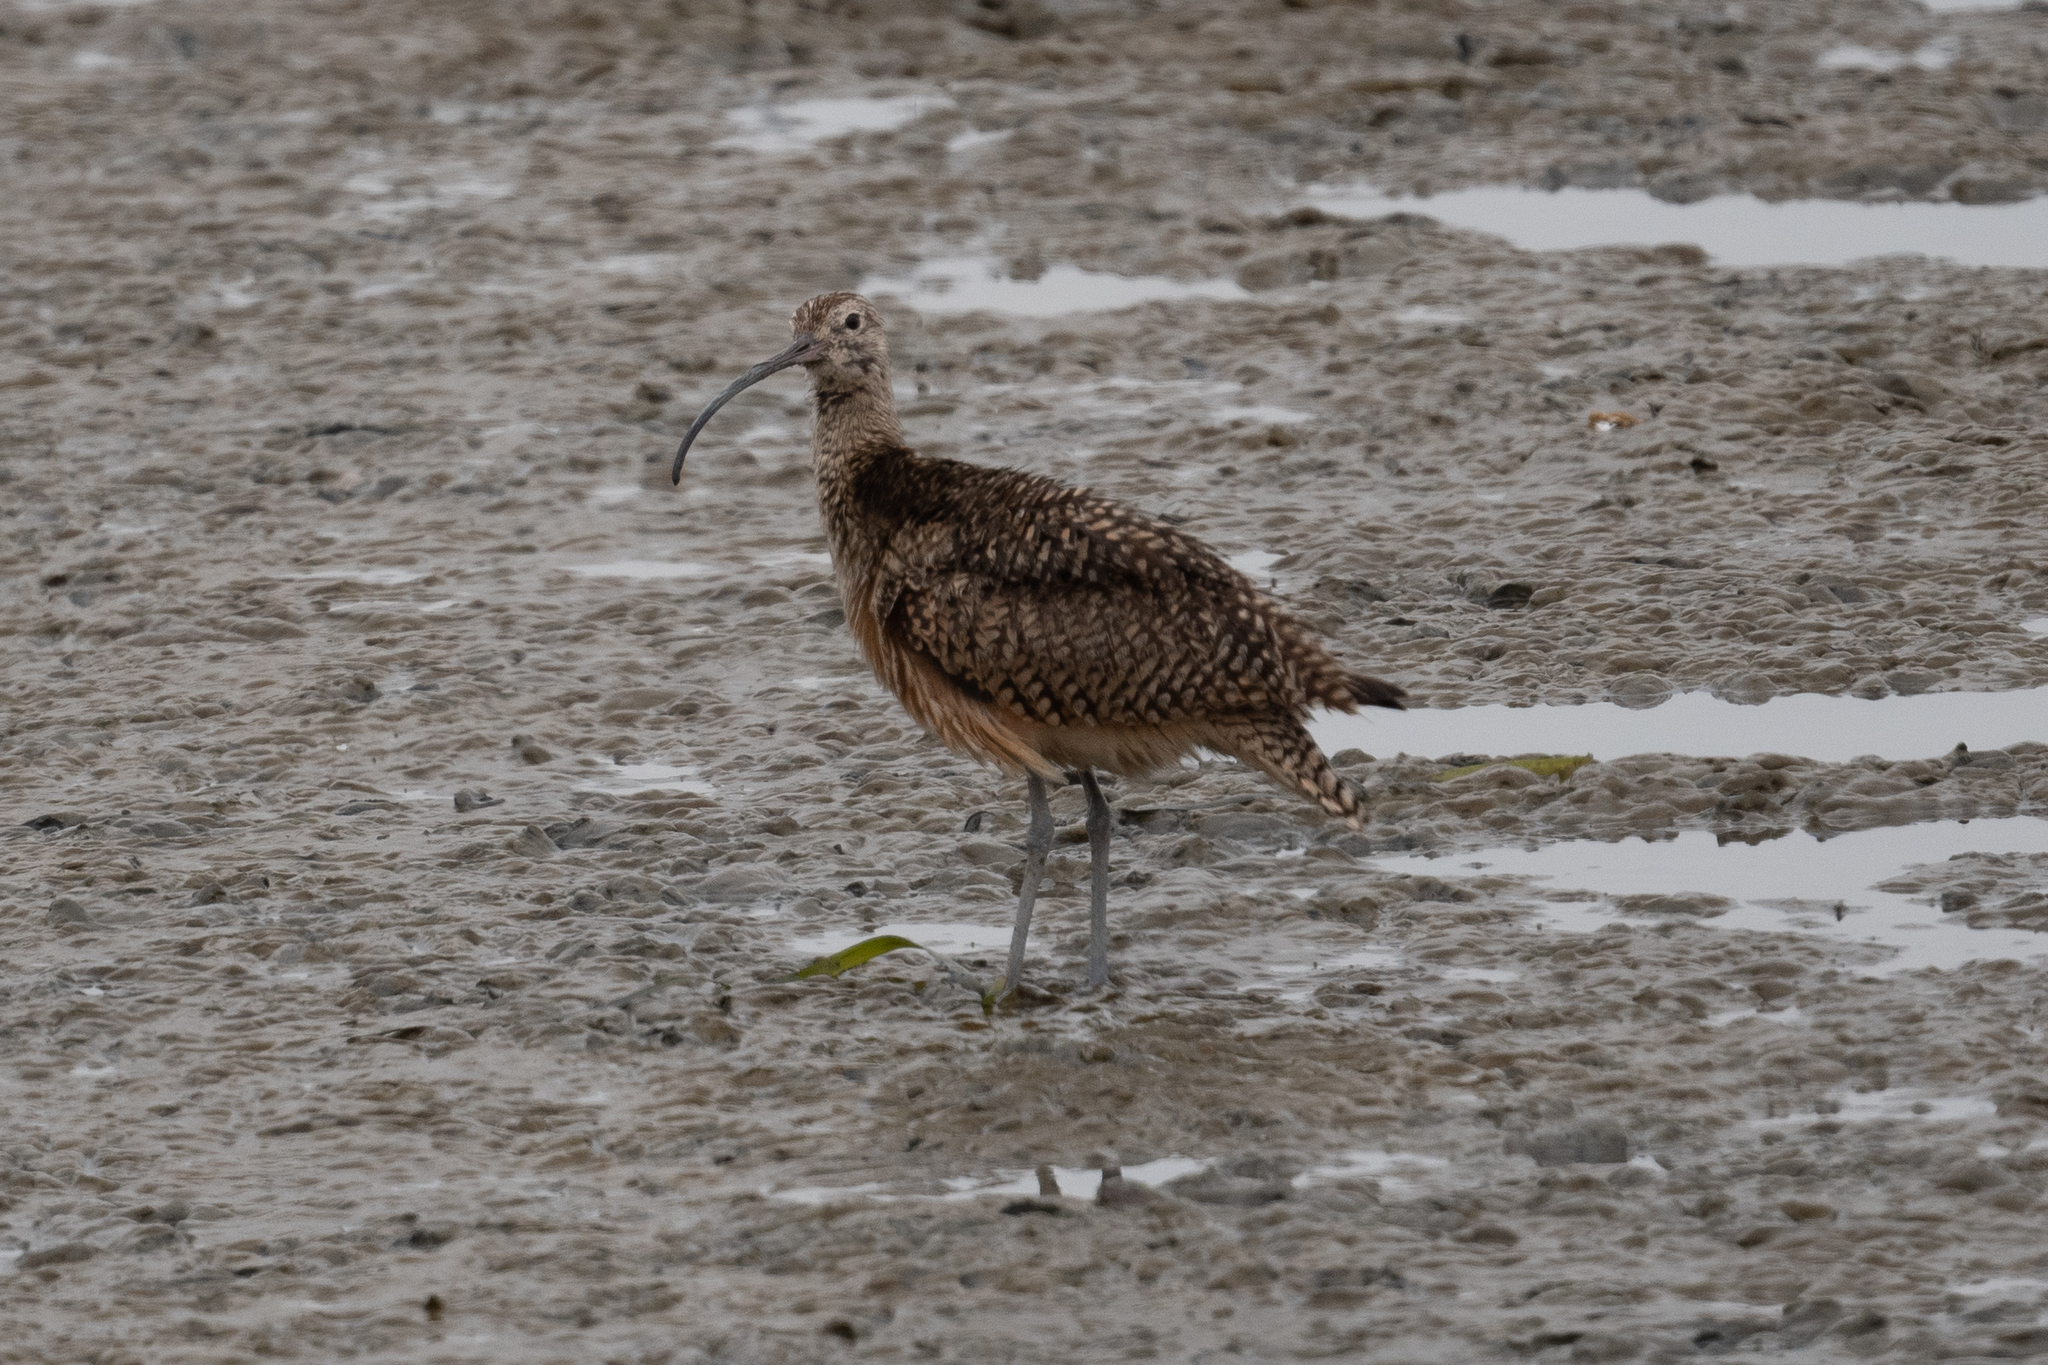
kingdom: Animalia
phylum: Chordata
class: Aves
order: Charadriiformes
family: Scolopacidae
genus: Numenius
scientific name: Numenius americanus
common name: Long-billed curlew
